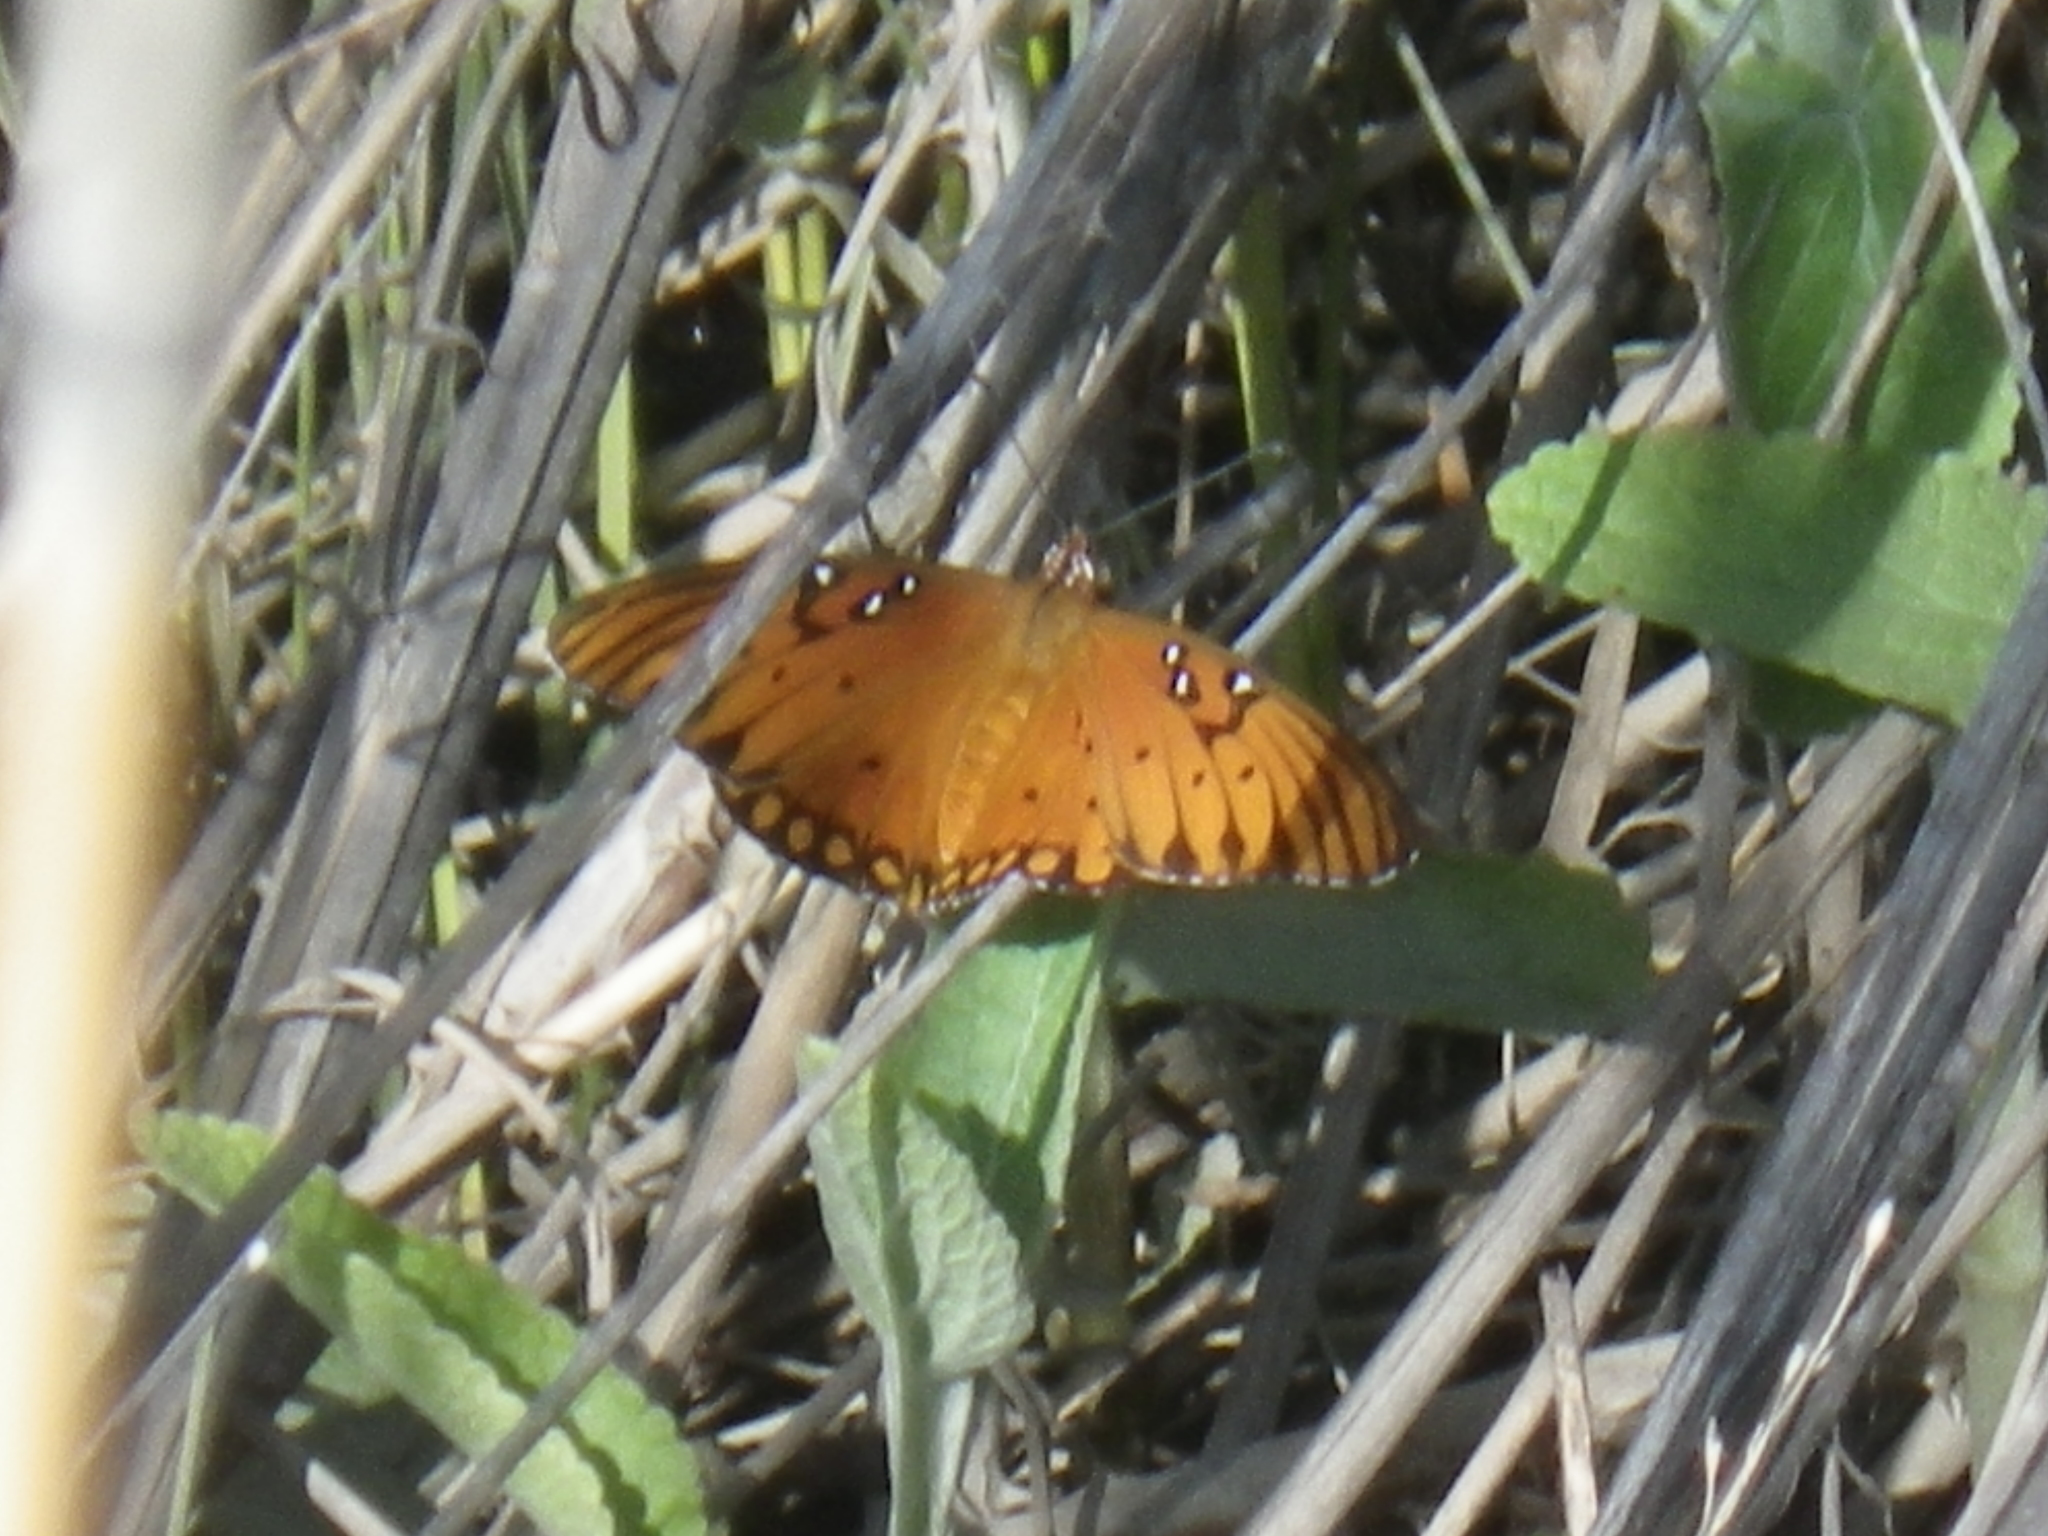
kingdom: Animalia
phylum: Arthropoda
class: Insecta
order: Lepidoptera
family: Nymphalidae
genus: Dione
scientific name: Dione vanillae
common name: Gulf fritillary
